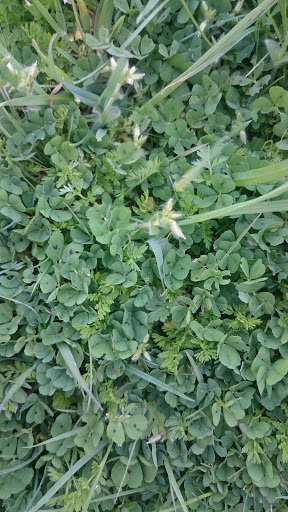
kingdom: Plantae
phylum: Tracheophyta
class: Magnoliopsida
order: Fabales
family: Fabaceae
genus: Medicago
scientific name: Medicago arabica
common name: Spotted medick
